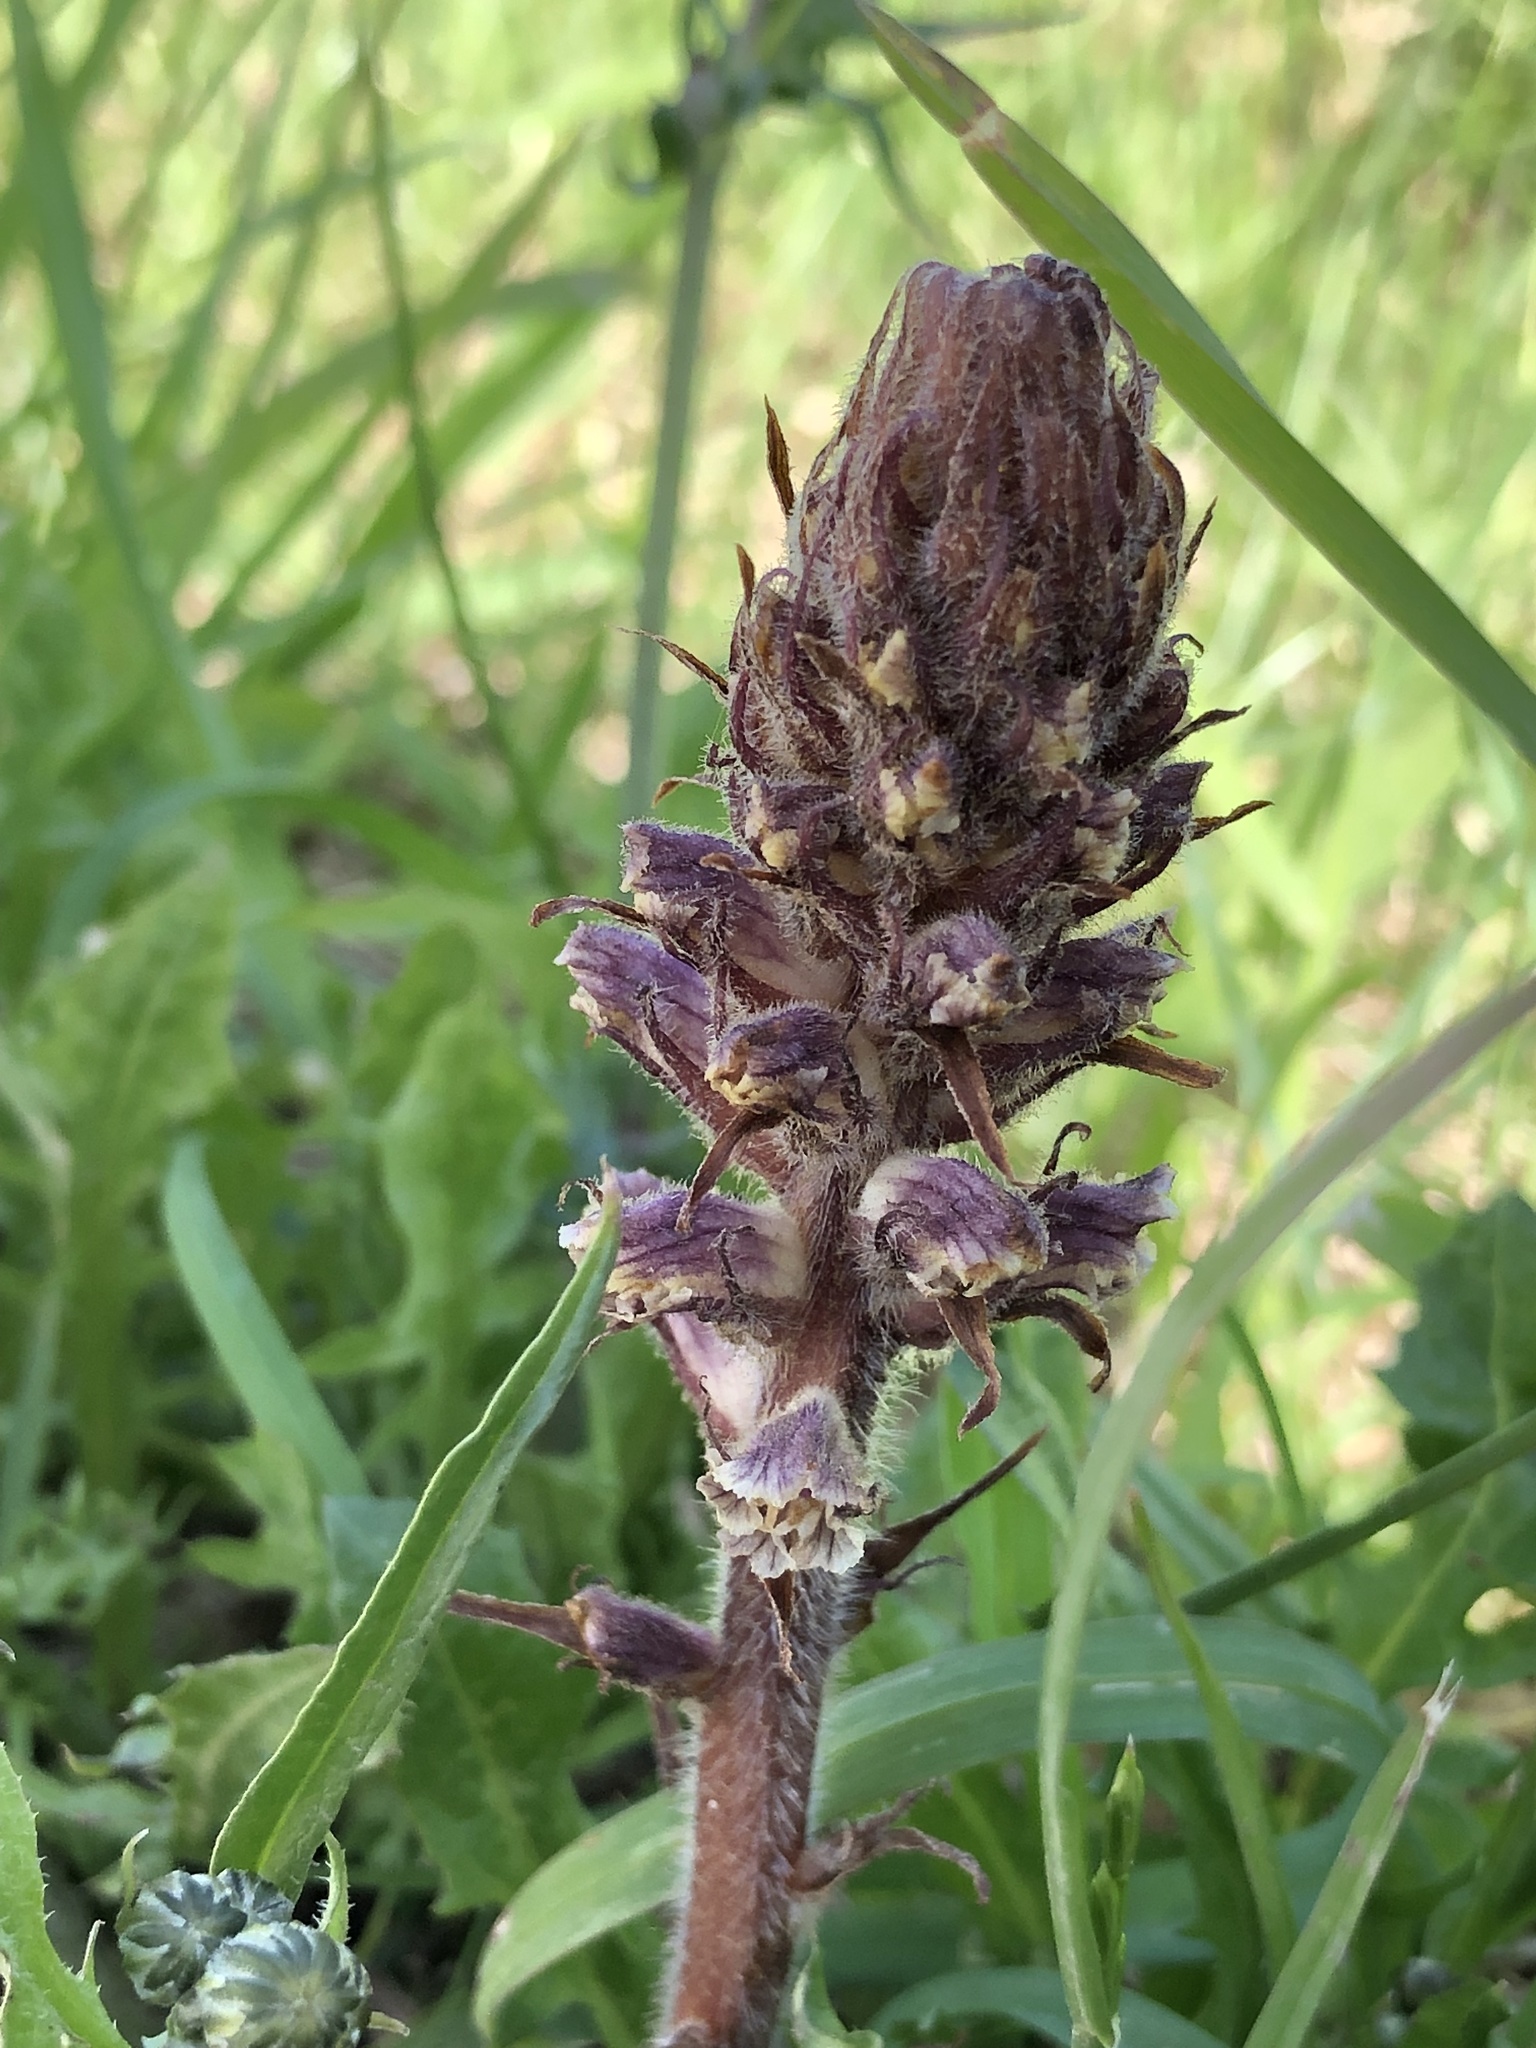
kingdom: Plantae
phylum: Tracheophyta
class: Magnoliopsida
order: Lamiales
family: Orobanchaceae
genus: Orobanche
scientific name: Orobanche minor
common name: Common broomrape
